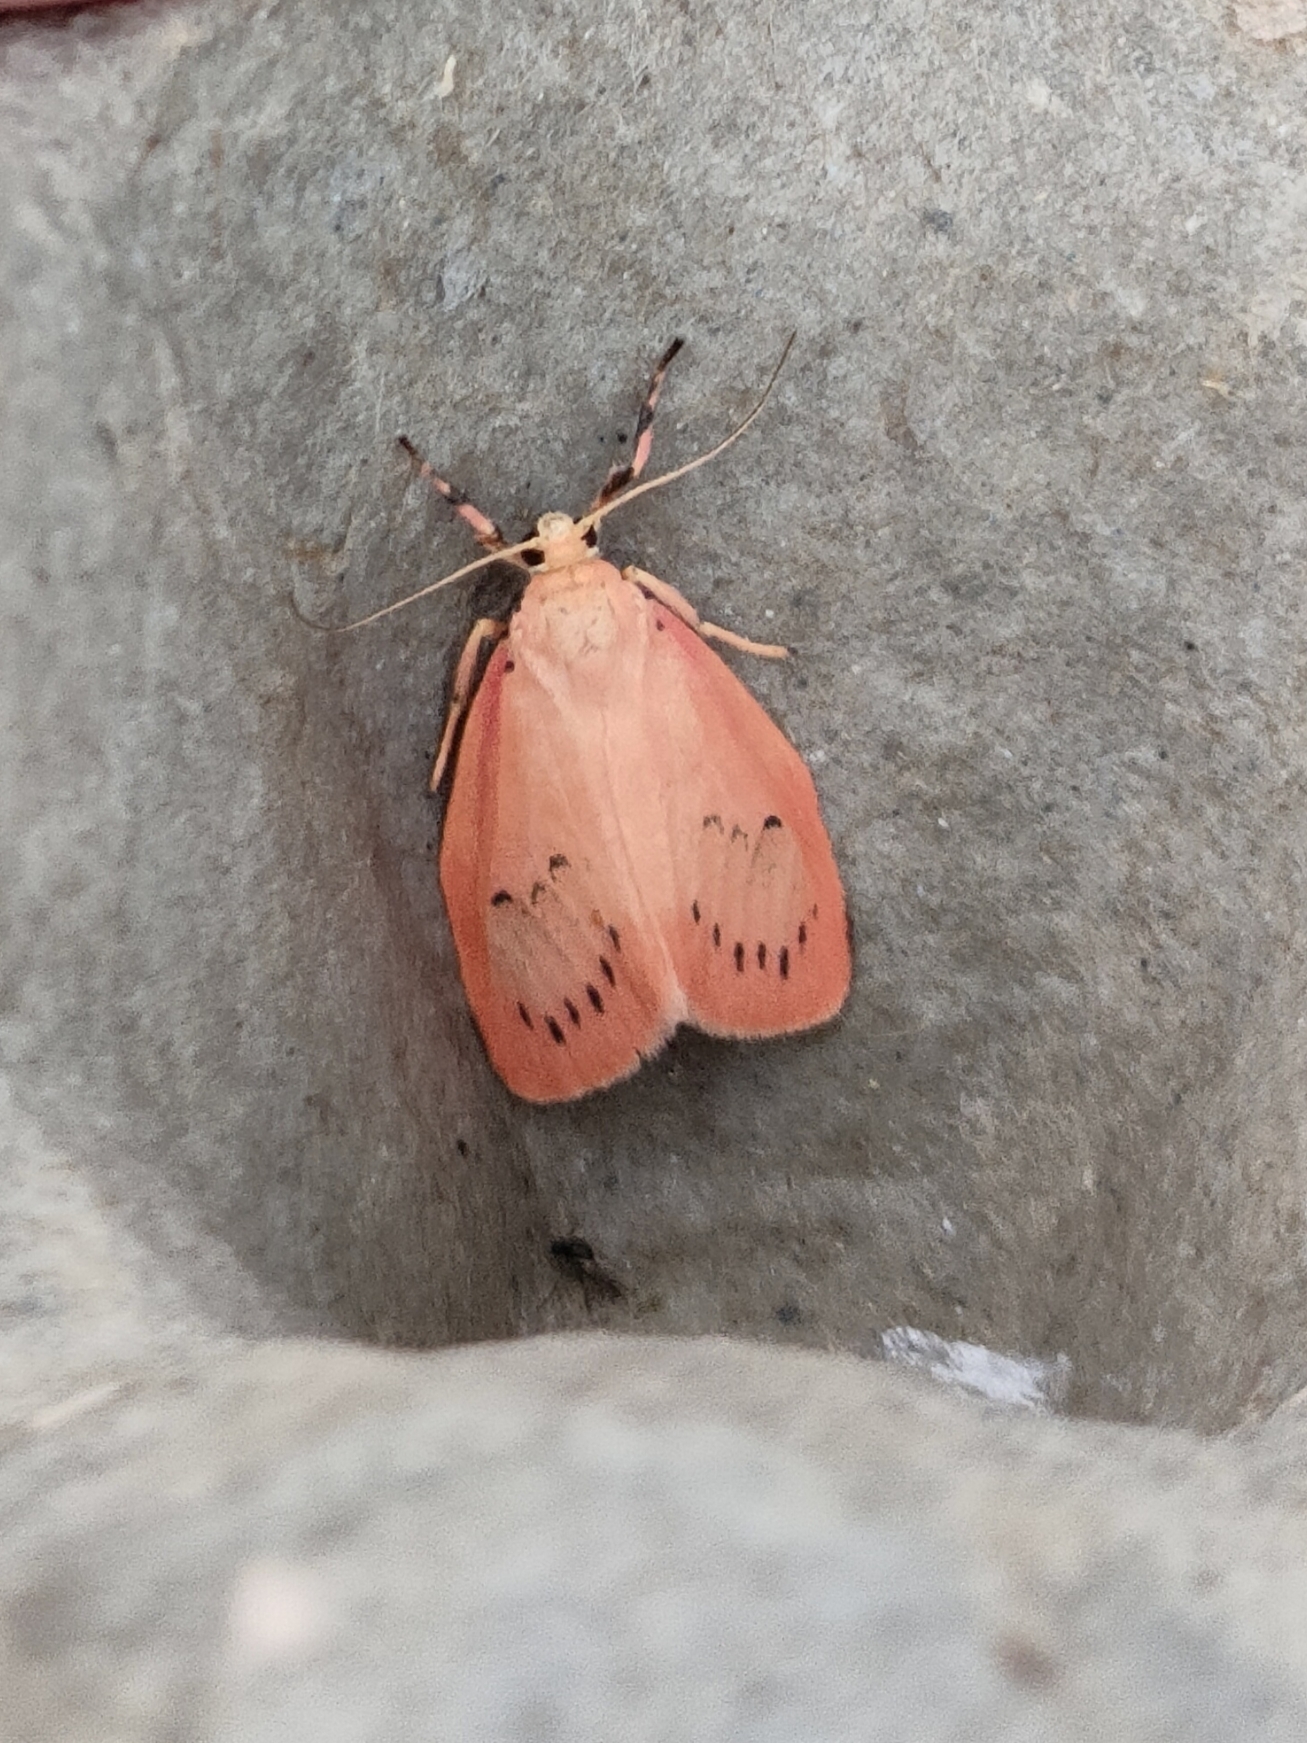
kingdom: Animalia
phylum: Arthropoda
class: Insecta
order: Lepidoptera
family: Erebidae
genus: Miltochrista
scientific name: Miltochrista miniata
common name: Rosy footman
